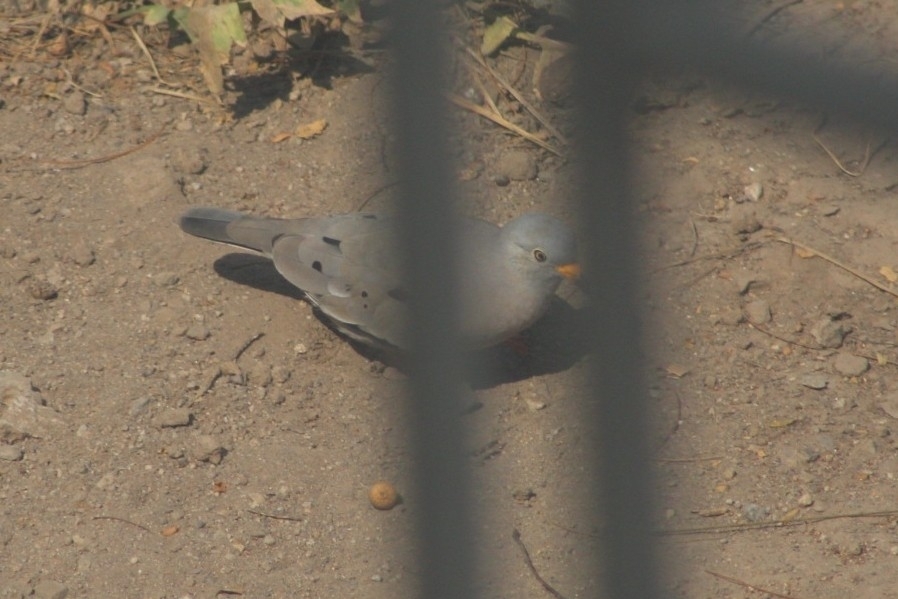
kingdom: Animalia
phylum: Chordata
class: Aves
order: Columbiformes
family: Columbidae
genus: Columbina
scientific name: Columbina cruziana
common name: Croaking ground dove
